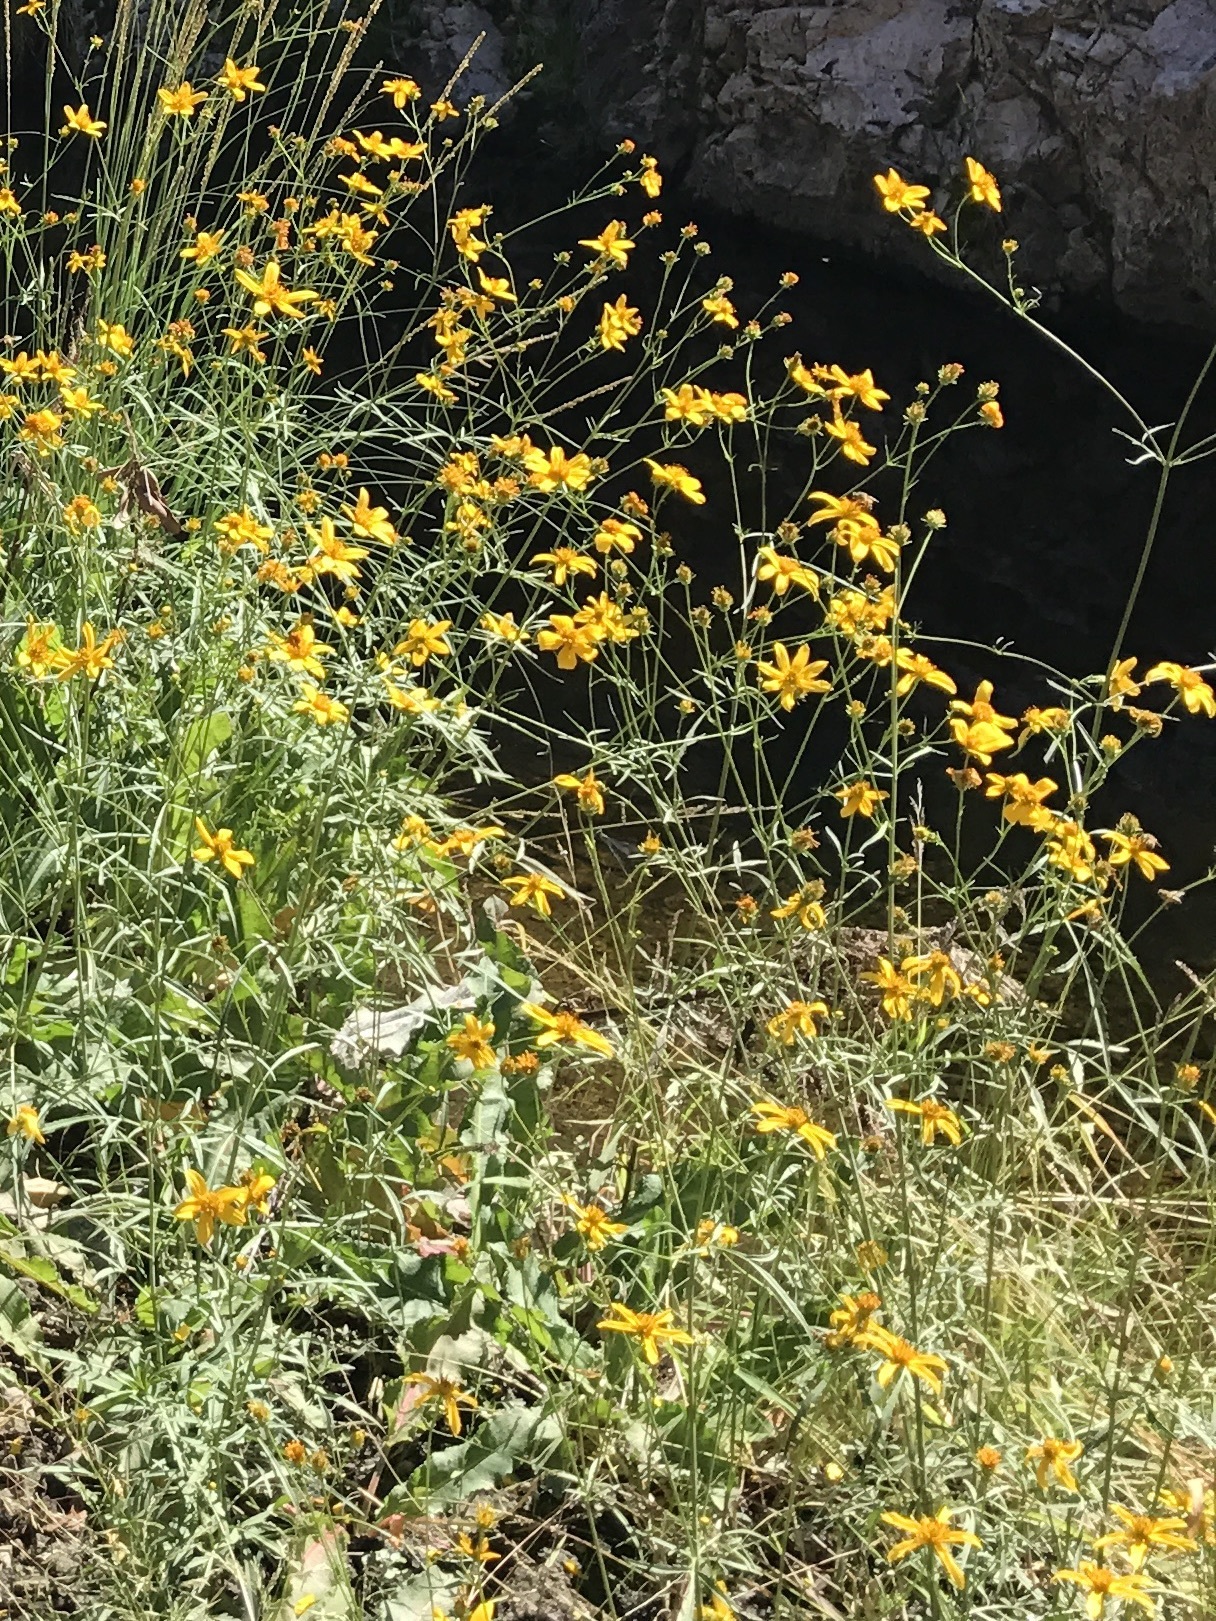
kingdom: Plantae
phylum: Tracheophyta
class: Magnoliopsida
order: Asterales
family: Asteraceae
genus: Bidens
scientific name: Bidens aurea
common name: Arizona beggar-ticks
